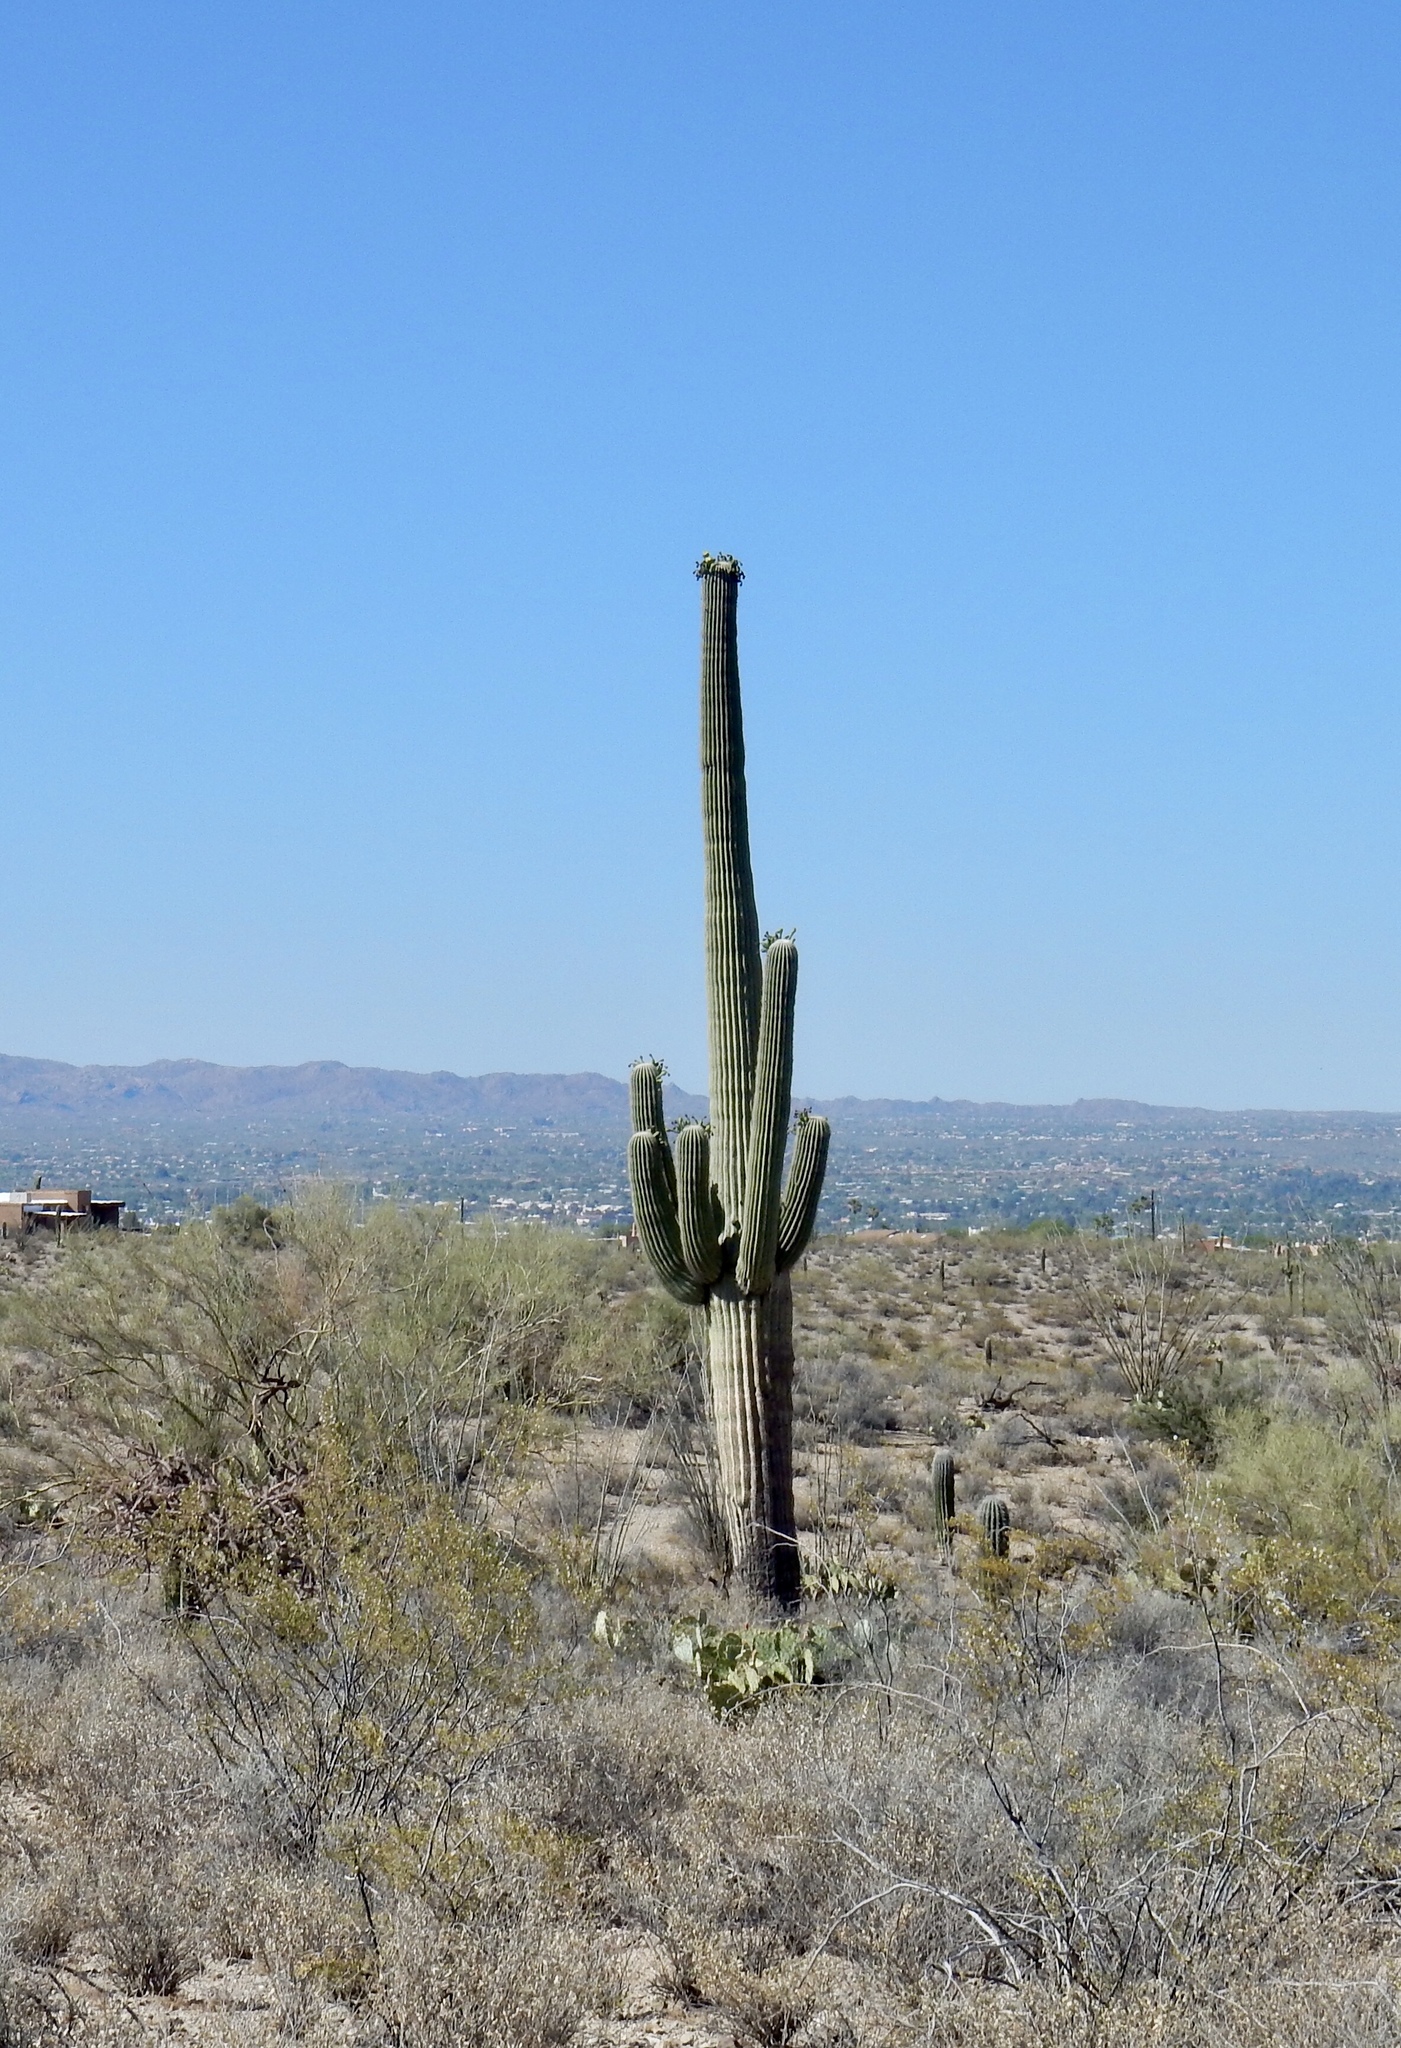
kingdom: Plantae
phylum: Tracheophyta
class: Magnoliopsida
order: Caryophyllales
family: Cactaceae
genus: Carnegiea
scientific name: Carnegiea gigantea
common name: Saguaro
